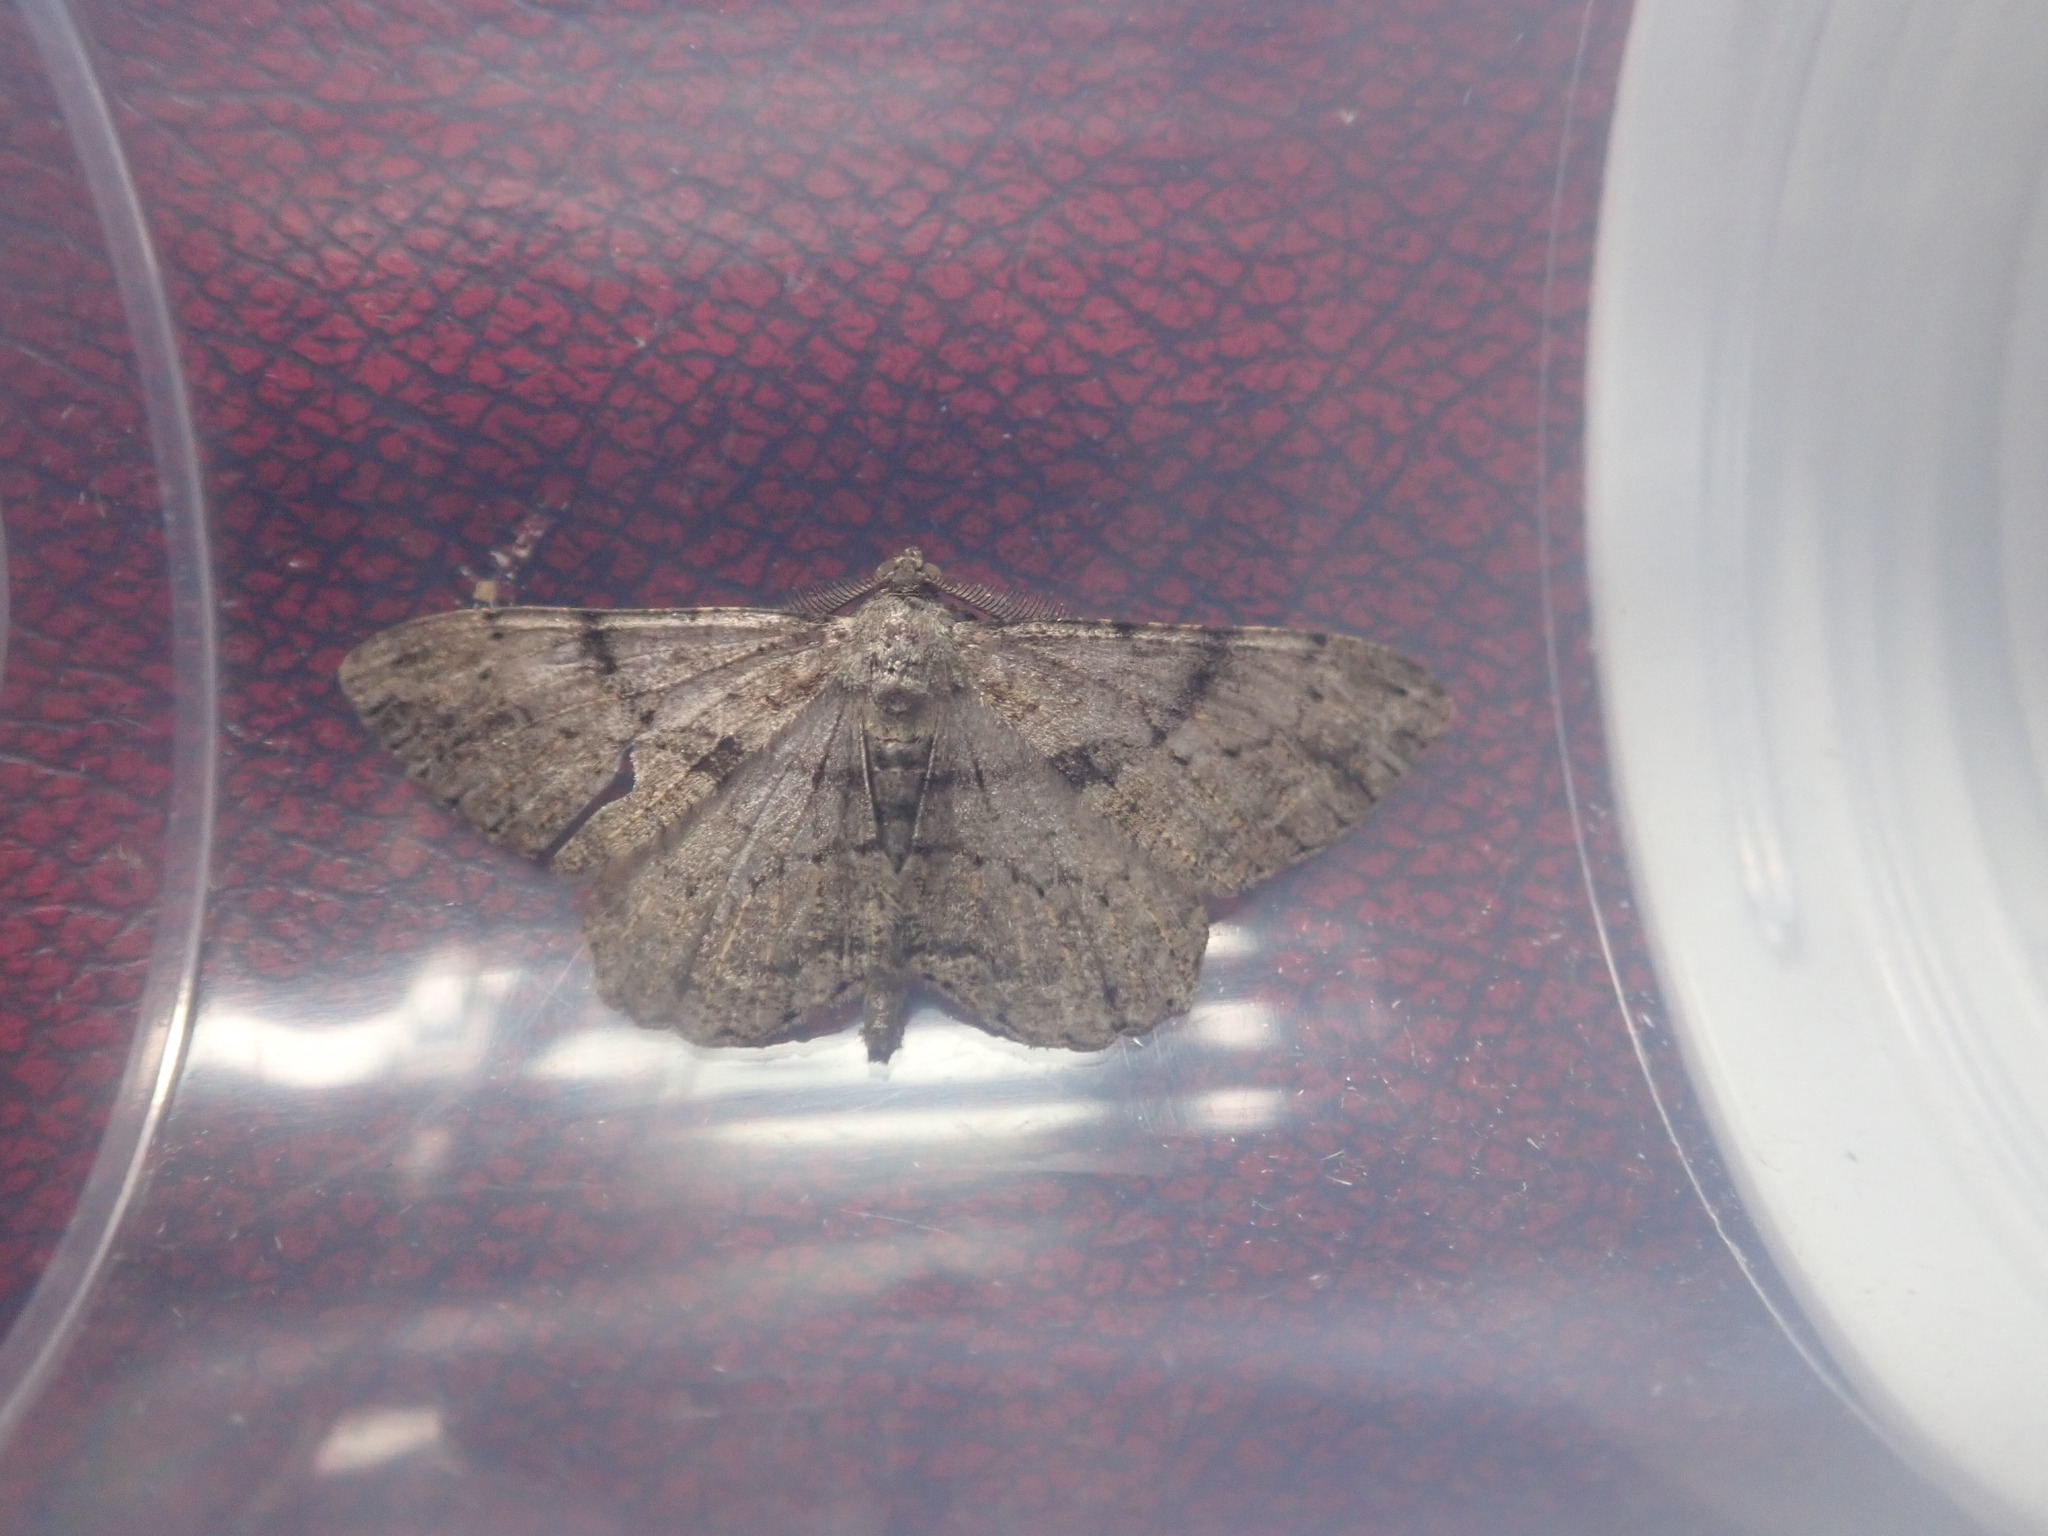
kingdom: Animalia
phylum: Arthropoda
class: Insecta
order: Lepidoptera
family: Geometridae
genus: Peribatodes
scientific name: Peribatodes rhomboidaria
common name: Willow beauty
